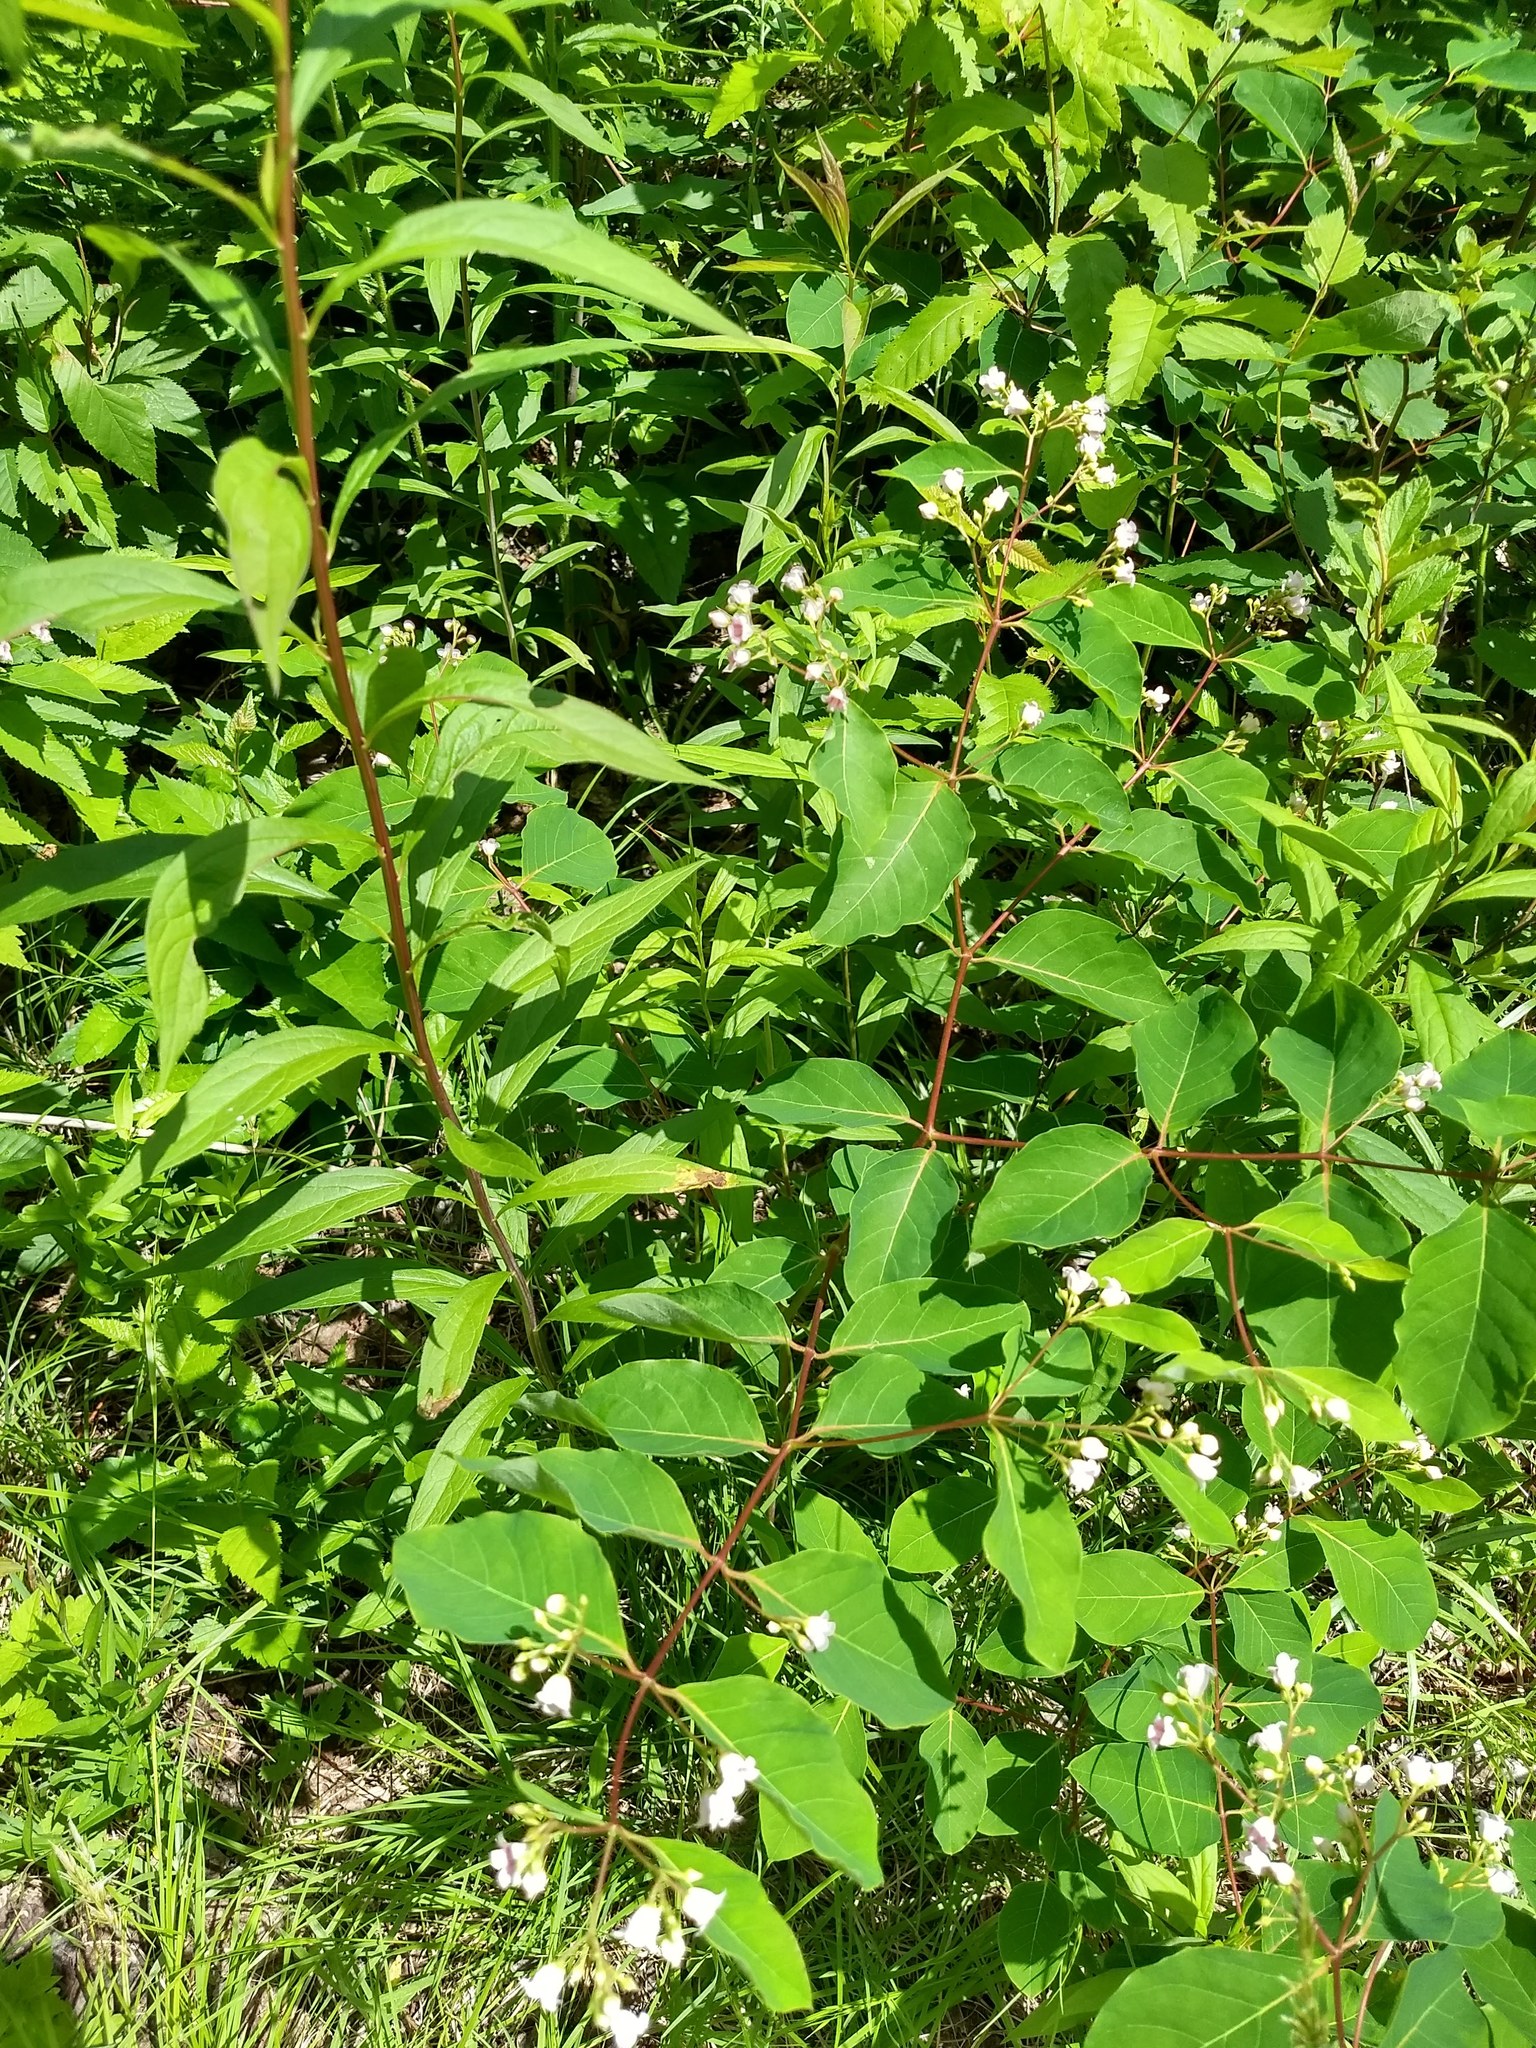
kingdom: Plantae
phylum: Tracheophyta
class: Magnoliopsida
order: Gentianales
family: Apocynaceae
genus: Apocynum
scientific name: Apocynum androsaemifolium
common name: Spreading dogbane
